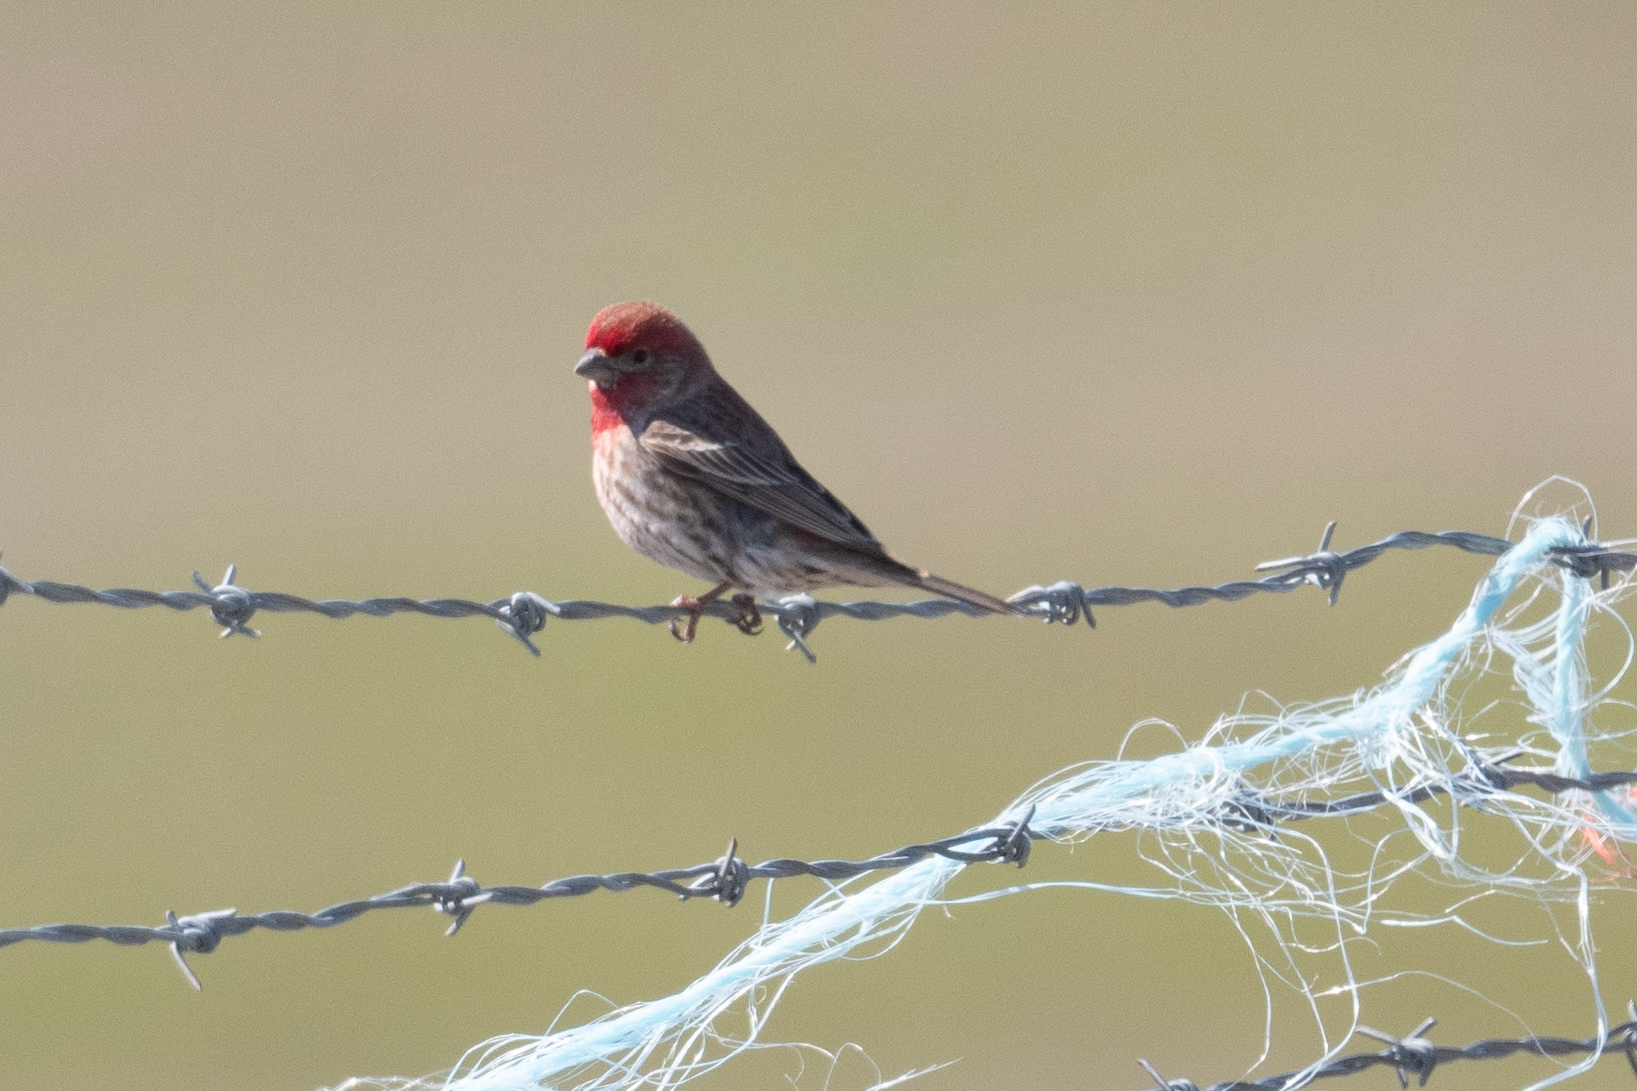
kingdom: Animalia
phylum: Chordata
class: Aves
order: Passeriformes
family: Fringillidae
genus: Haemorhous
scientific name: Haemorhous mexicanus
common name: House finch
